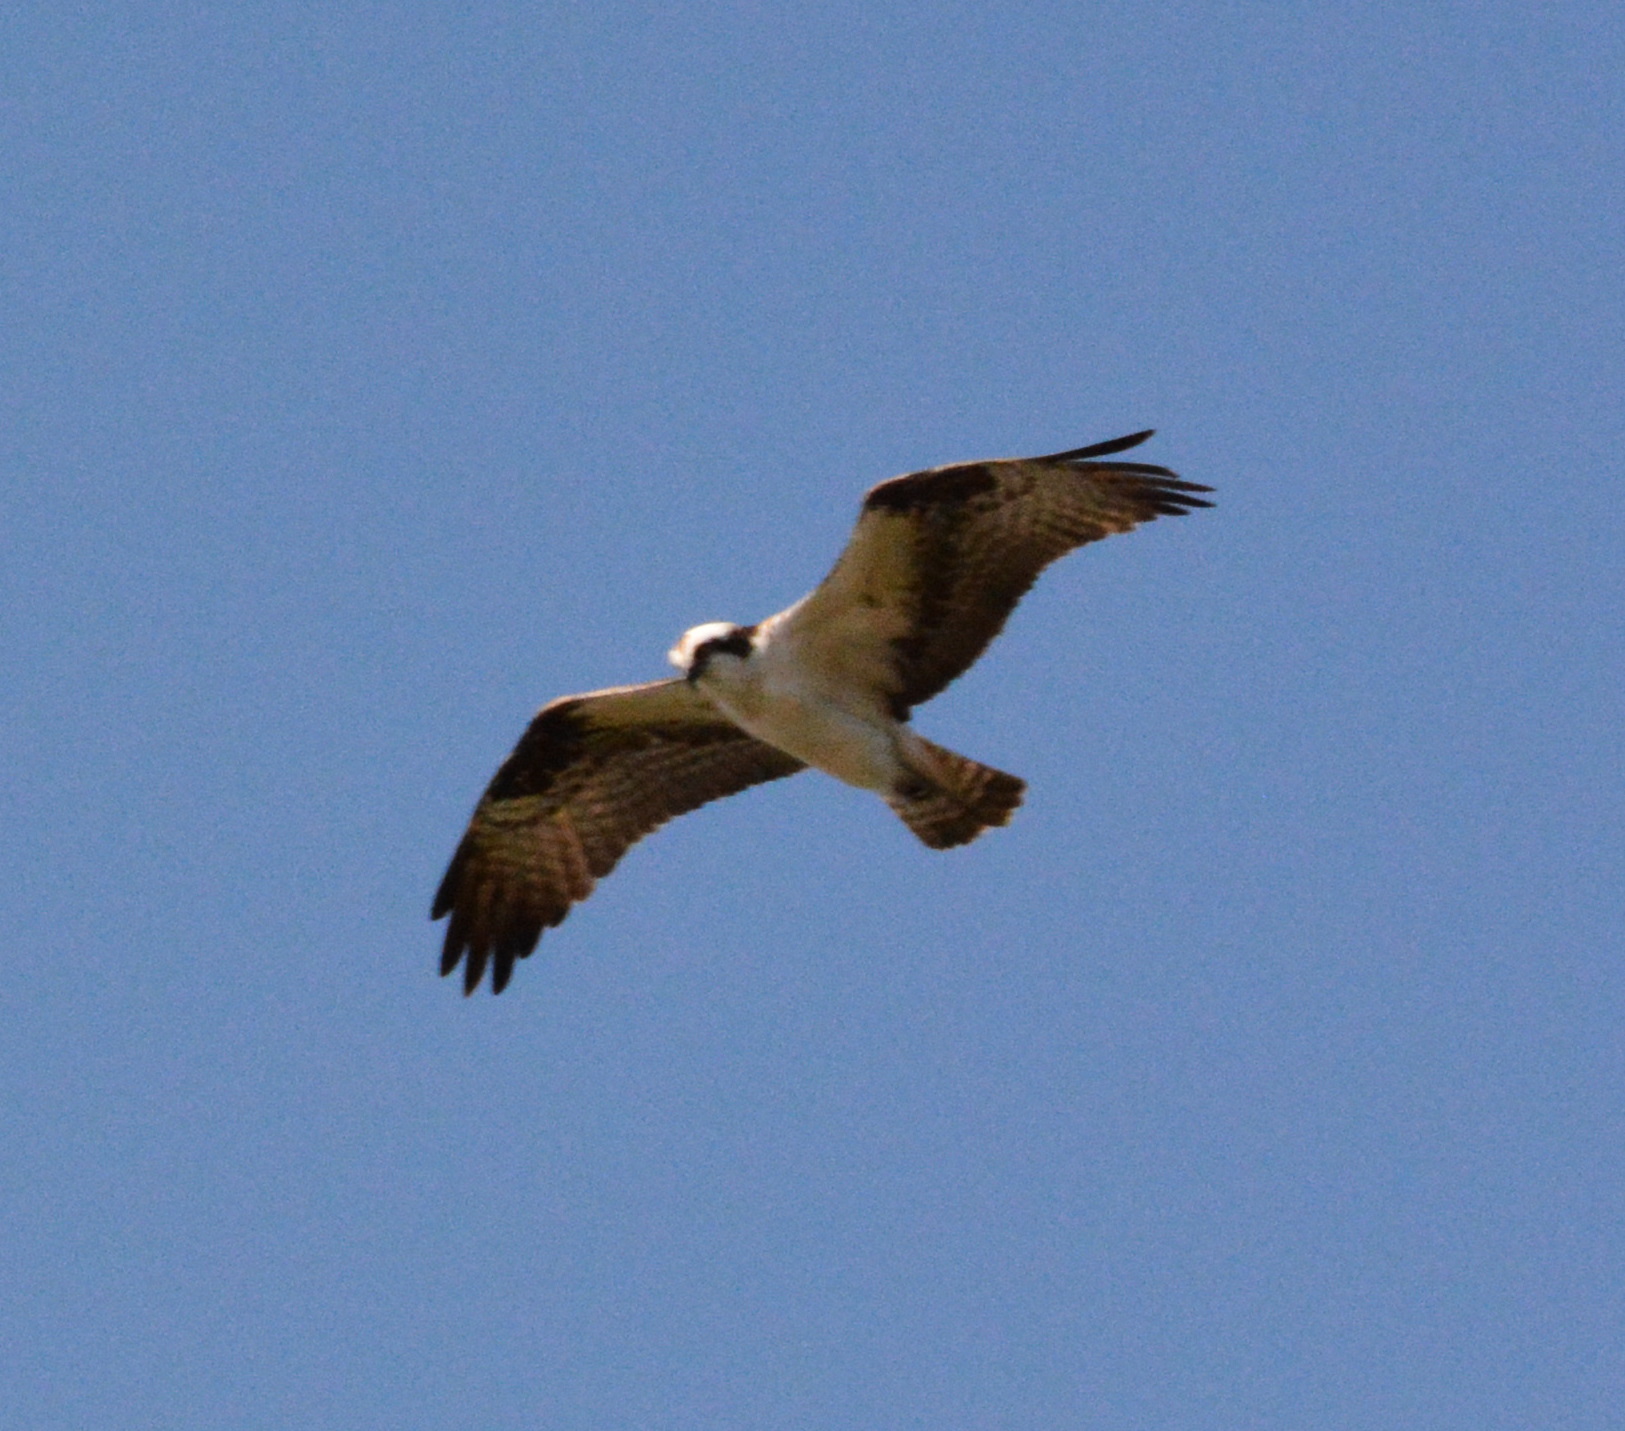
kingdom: Animalia
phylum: Chordata
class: Aves
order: Accipitriformes
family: Pandionidae
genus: Pandion
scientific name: Pandion haliaetus
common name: Osprey
